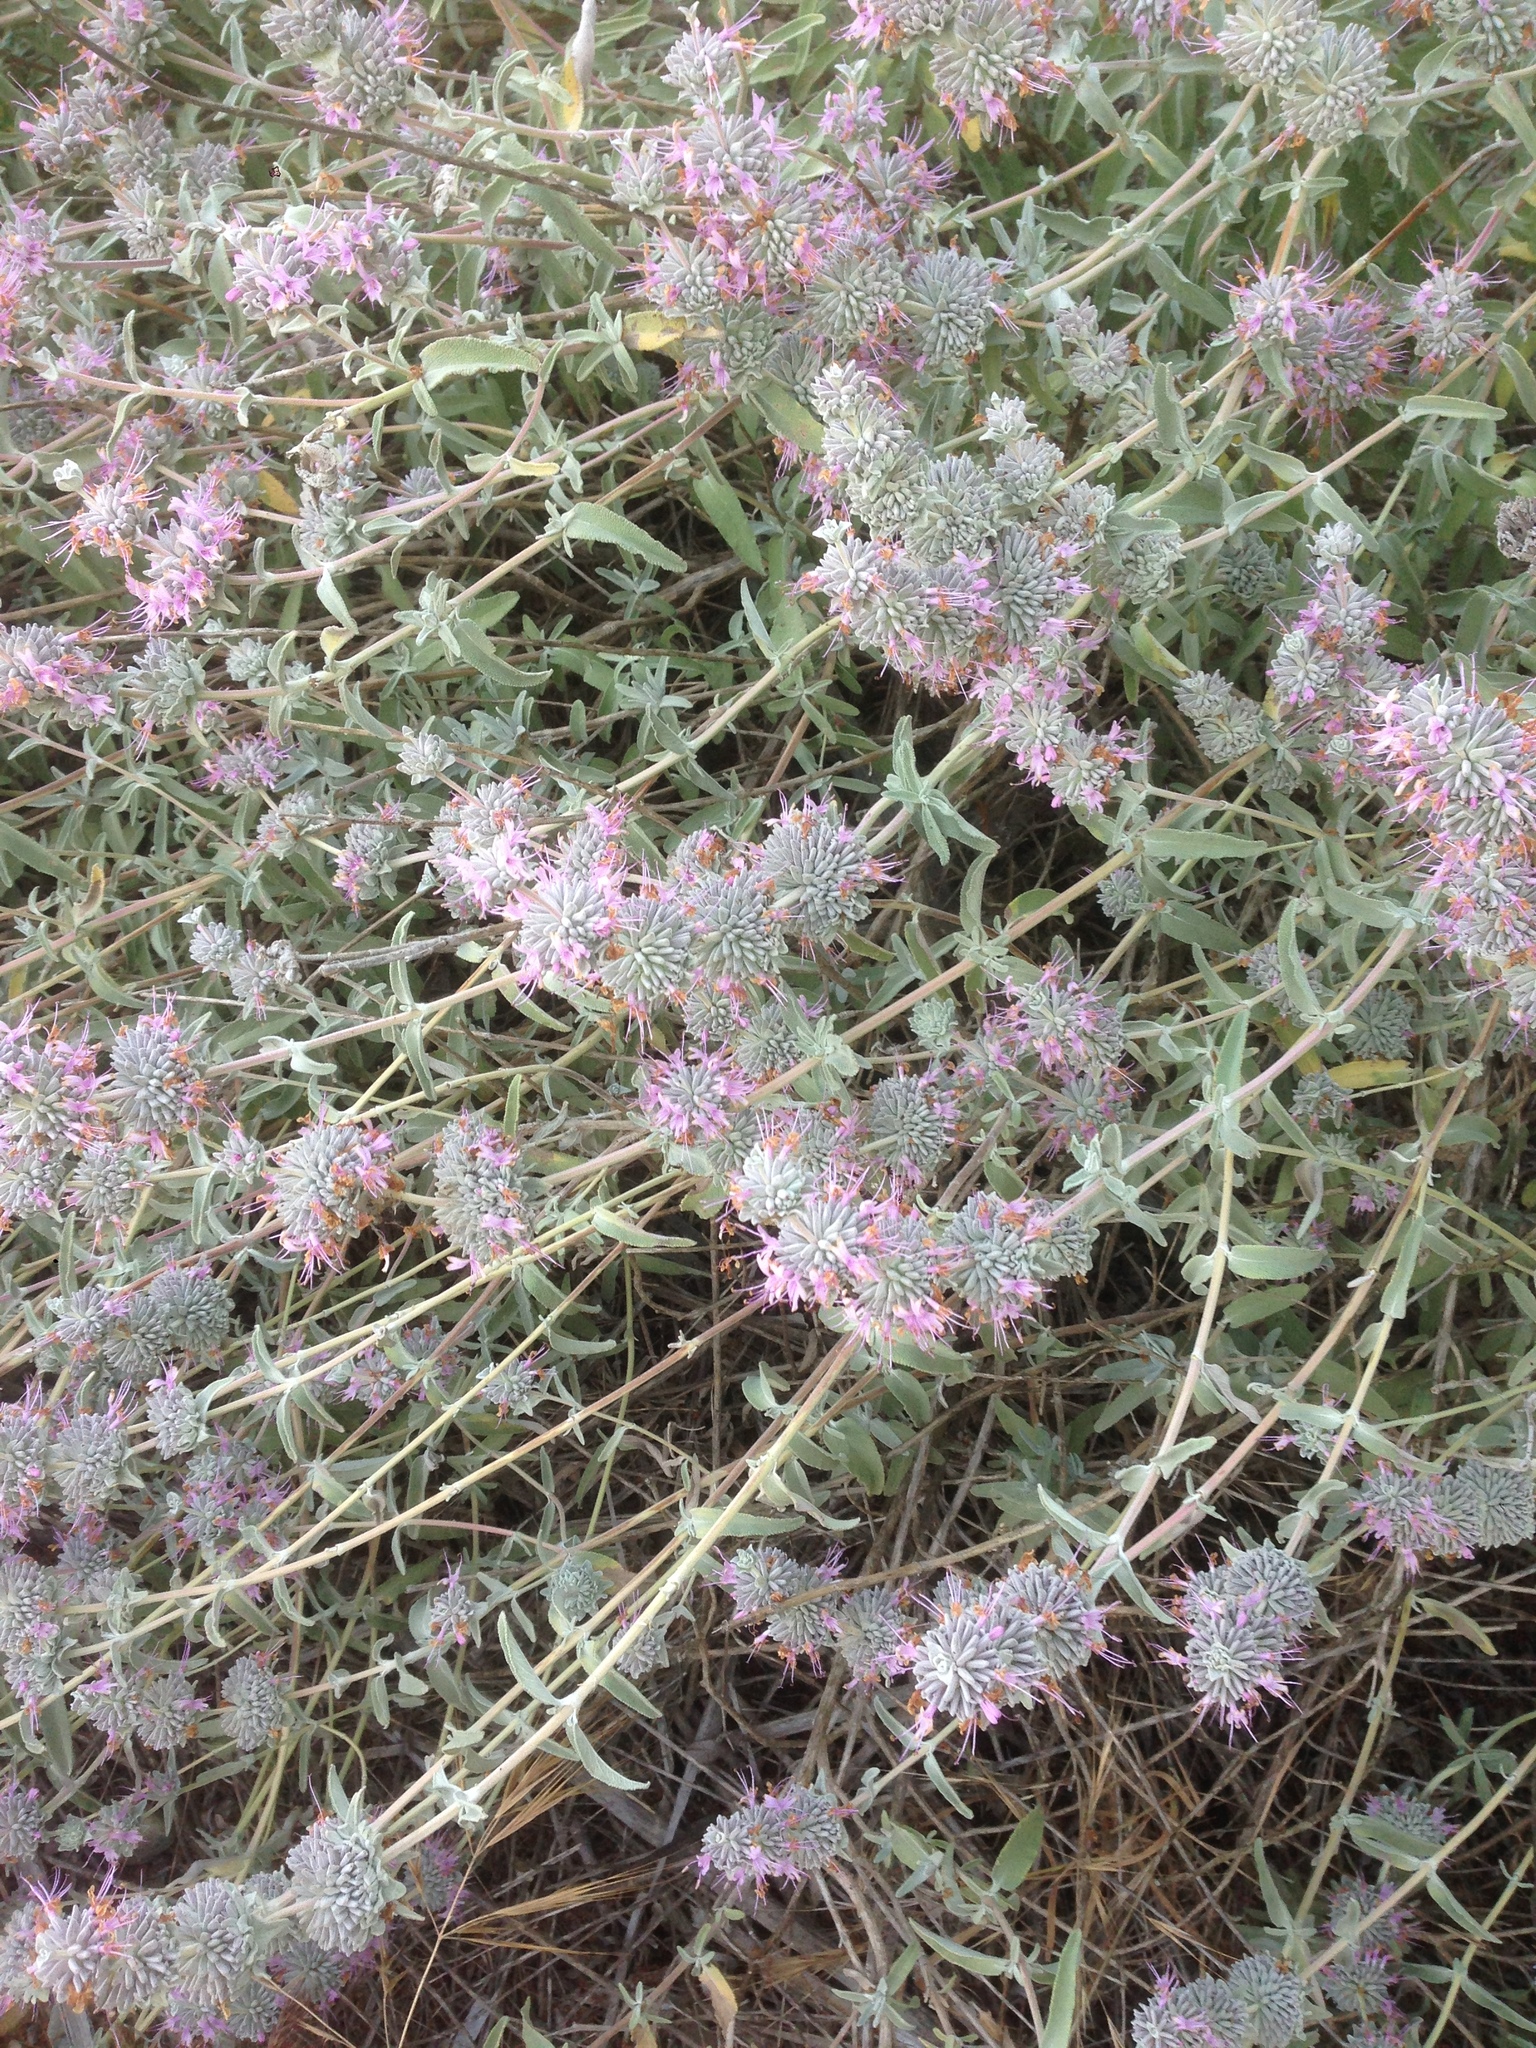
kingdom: Plantae
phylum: Tracheophyta
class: Magnoliopsida
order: Lamiales
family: Lamiaceae
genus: Salvia
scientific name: Salvia leucophylla
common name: Purple sage
